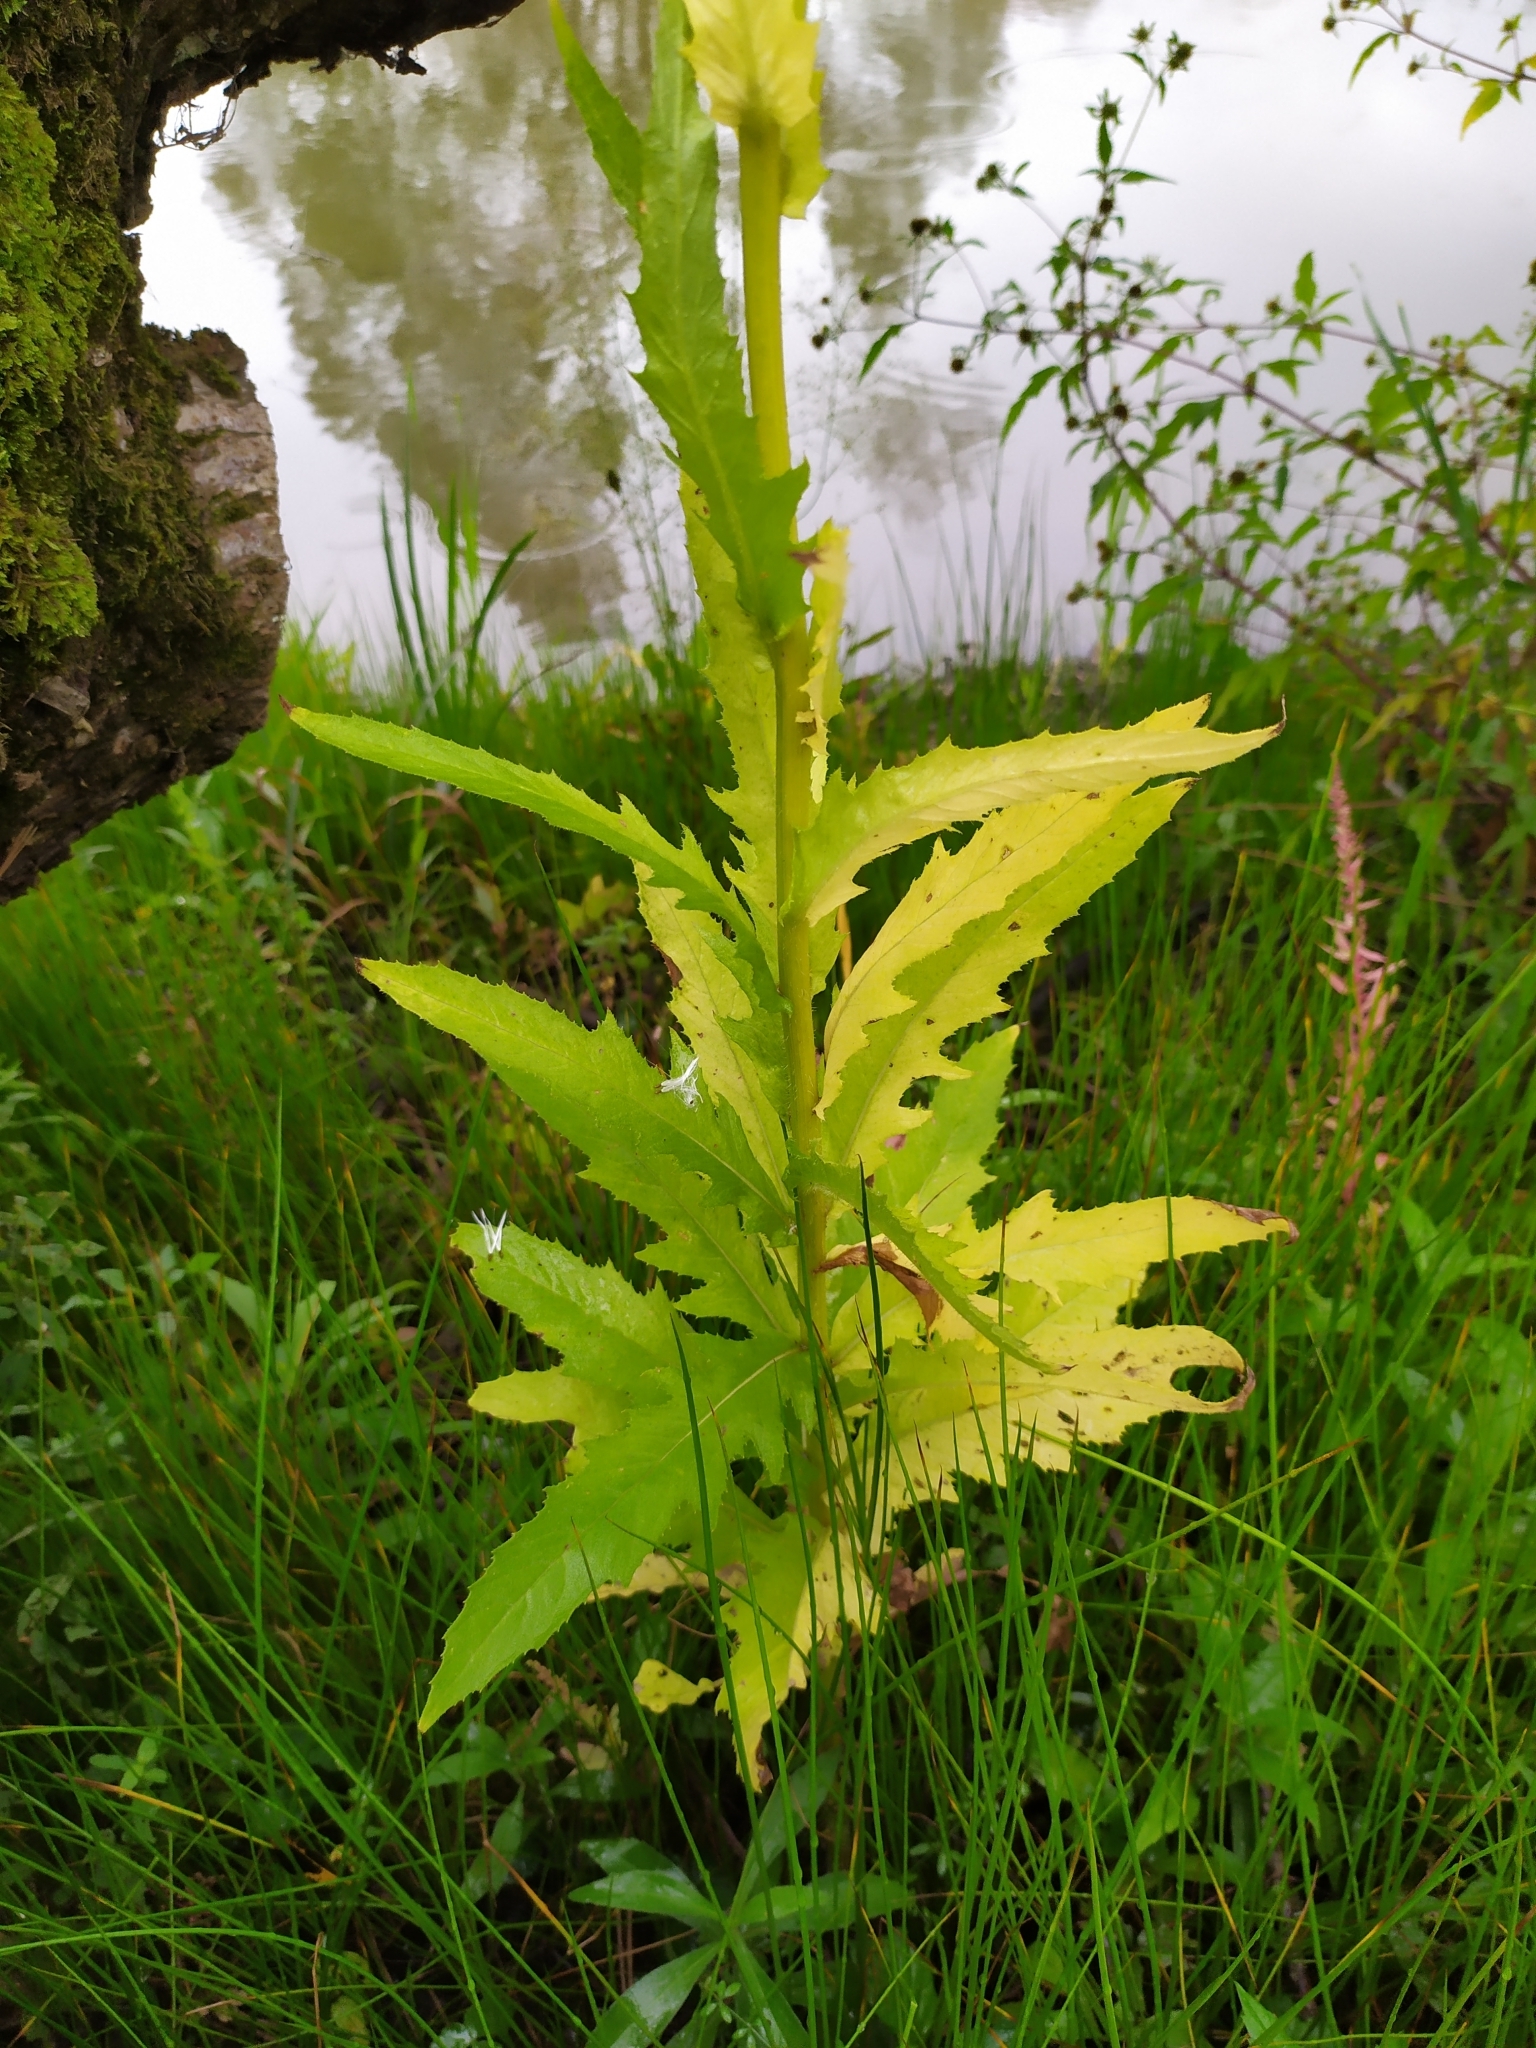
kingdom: Plantae
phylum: Tracheophyta
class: Magnoliopsida
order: Asterales
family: Asteraceae
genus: Erechtites
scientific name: Erechtites hieraciifolius
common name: American burnweed
